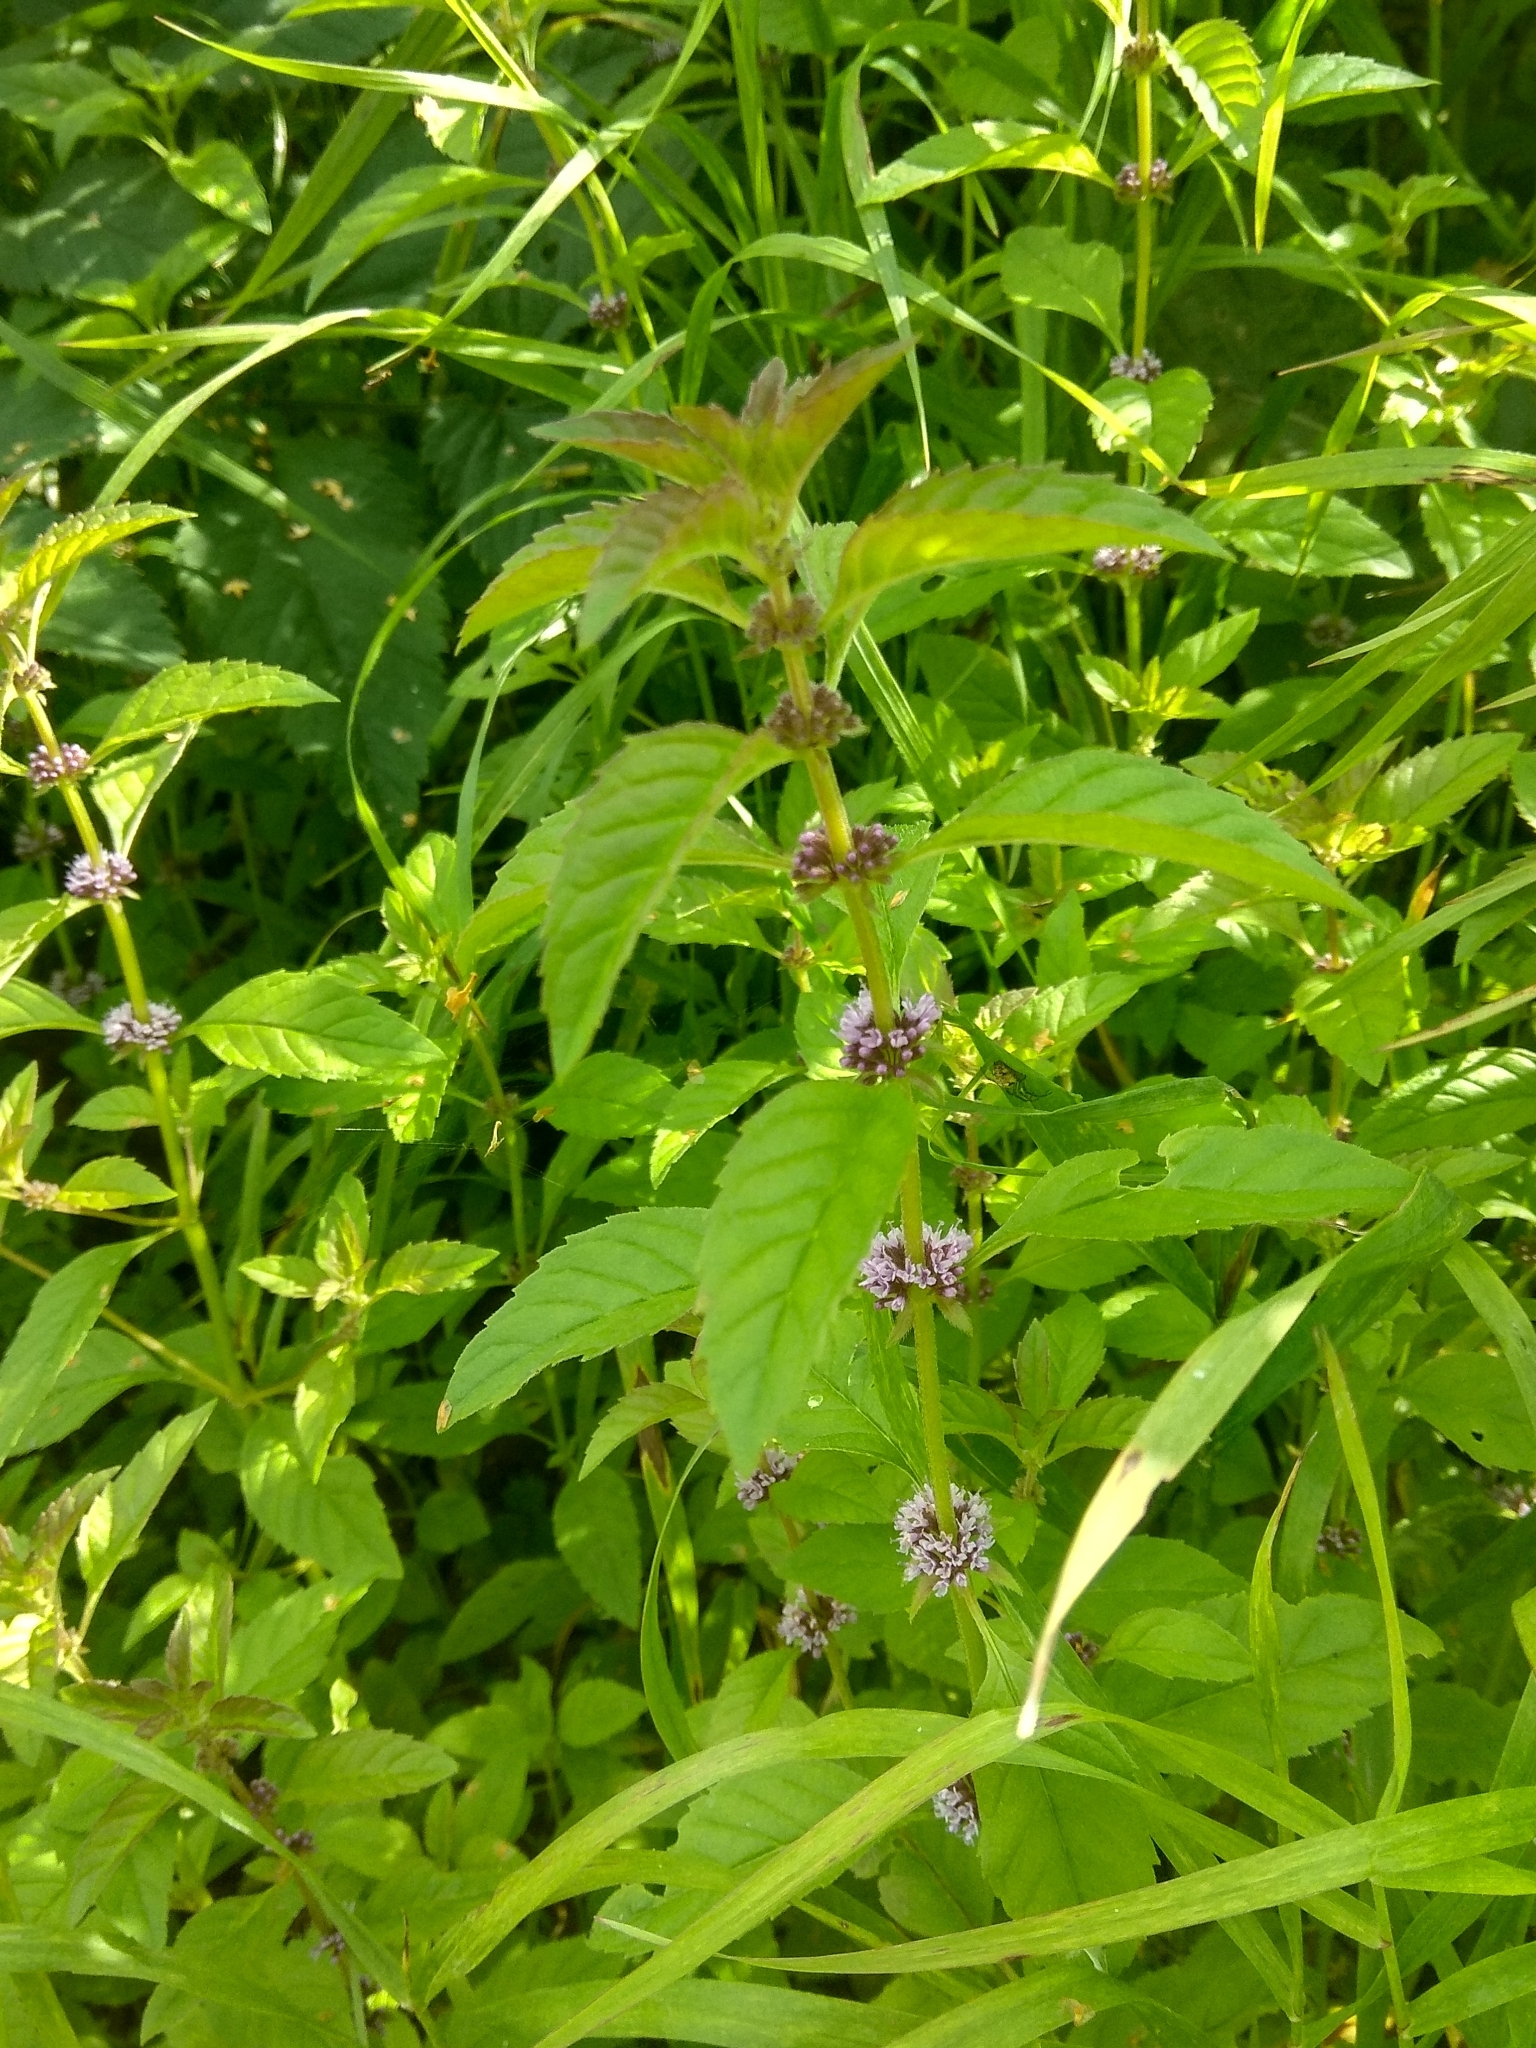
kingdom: Plantae
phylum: Tracheophyta
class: Magnoliopsida
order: Lamiales
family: Lamiaceae
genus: Mentha
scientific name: Mentha arvensis
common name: Corn mint
